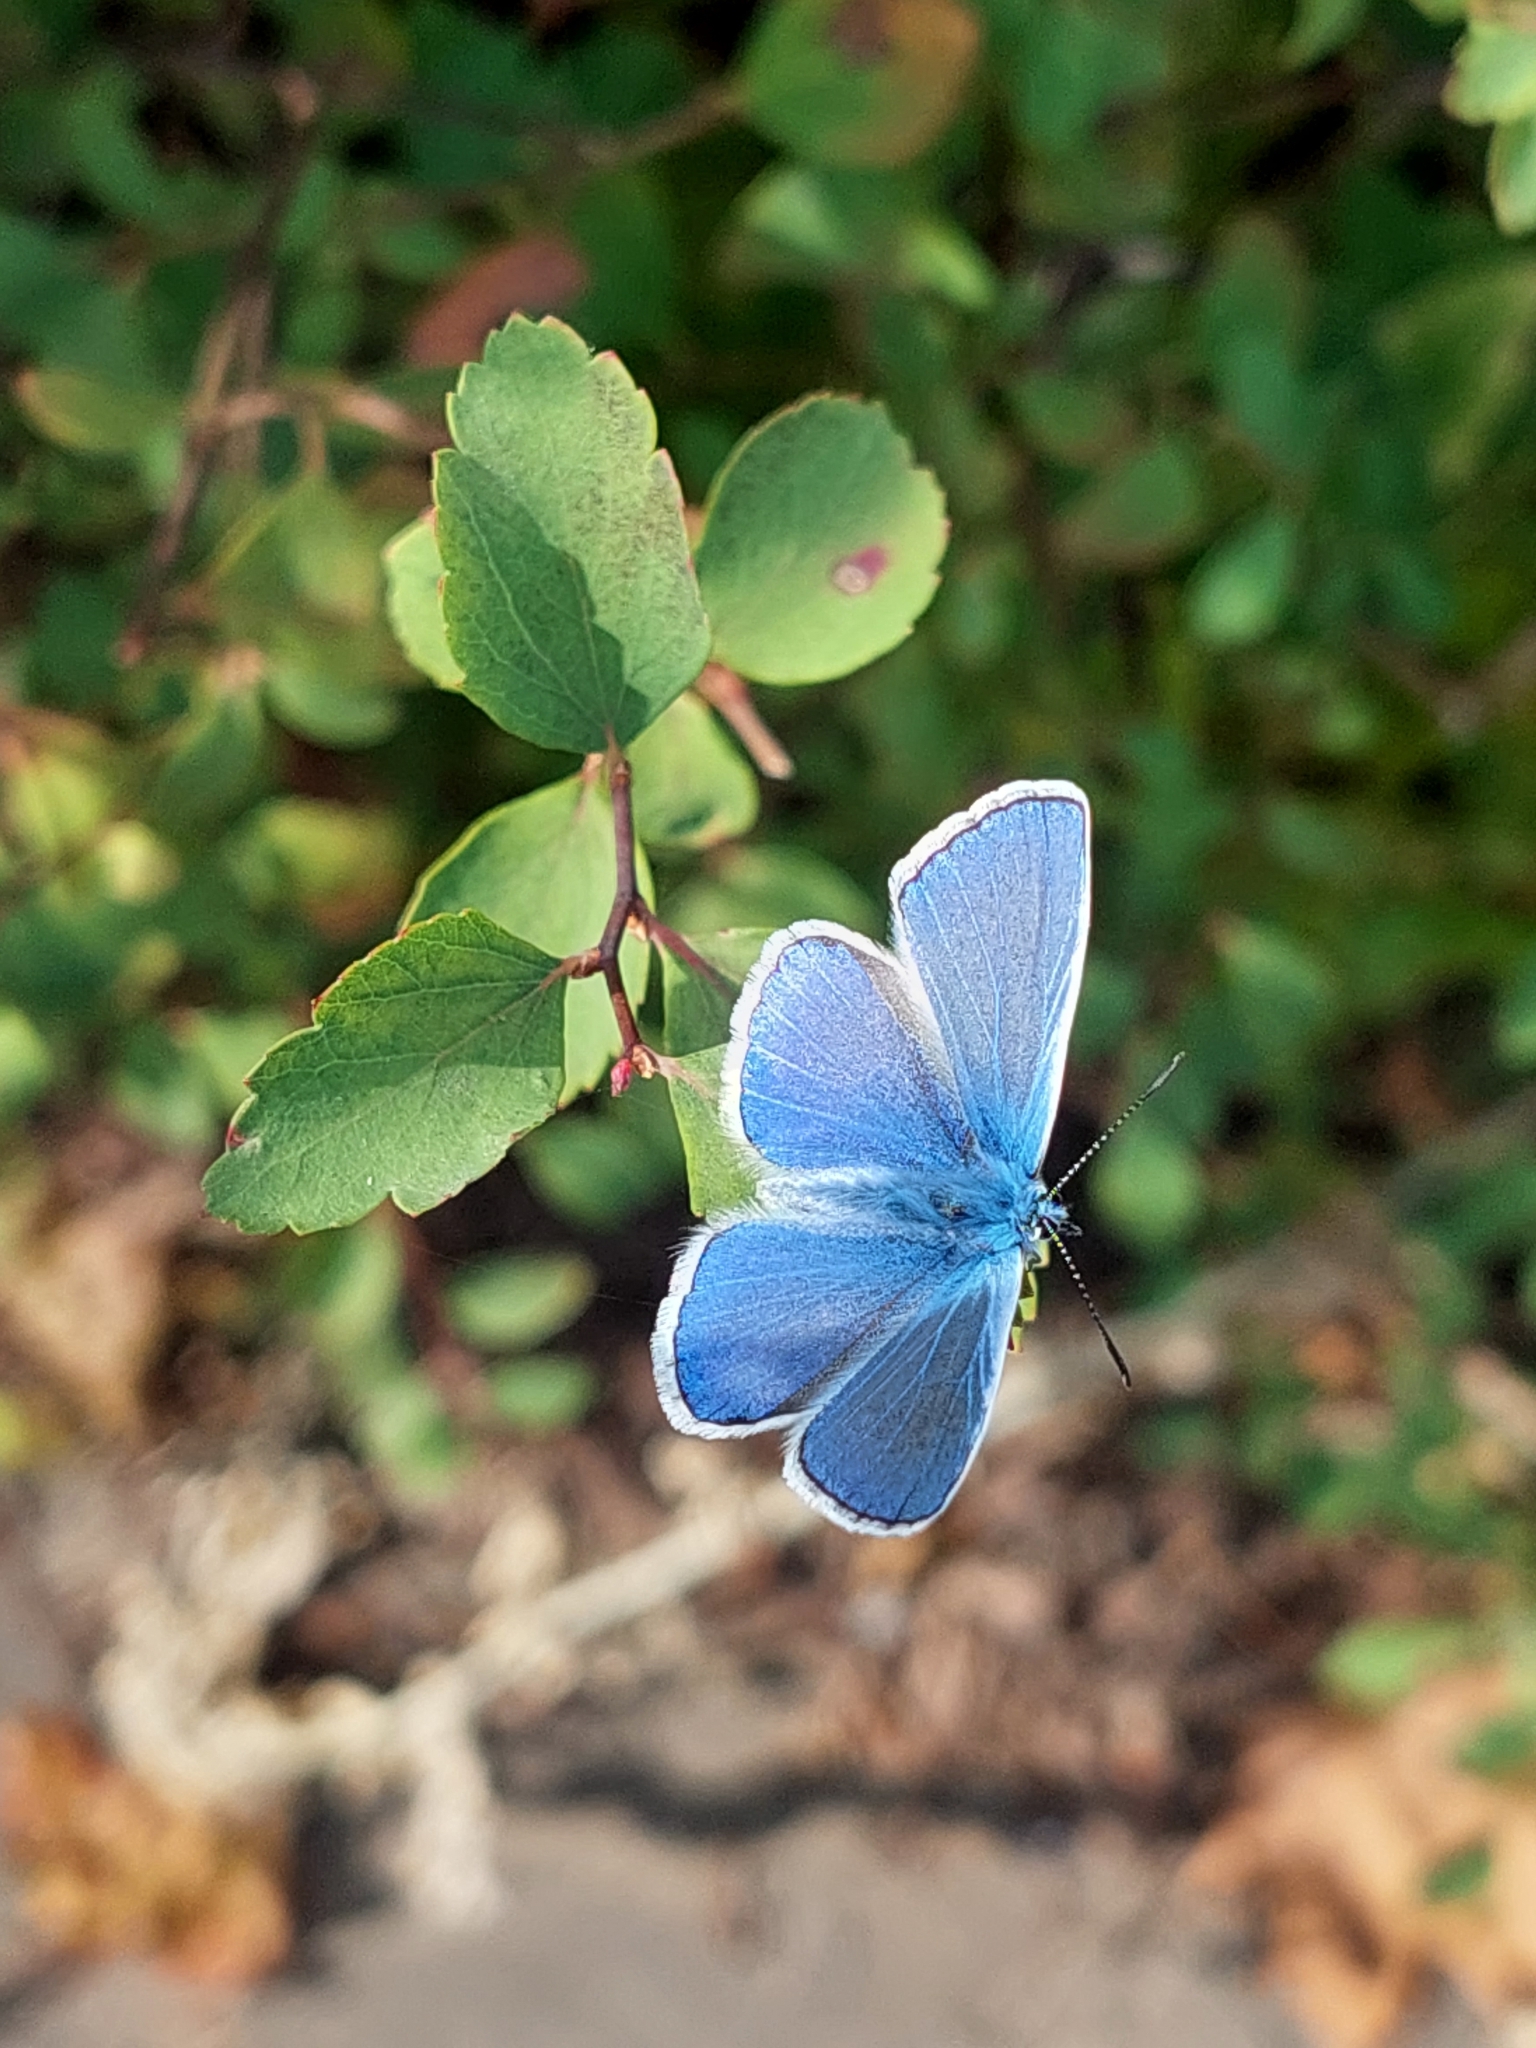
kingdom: Animalia
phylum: Arthropoda
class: Insecta
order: Lepidoptera
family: Lycaenidae
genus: Polyommatus
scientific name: Polyommatus icarus
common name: Common blue
